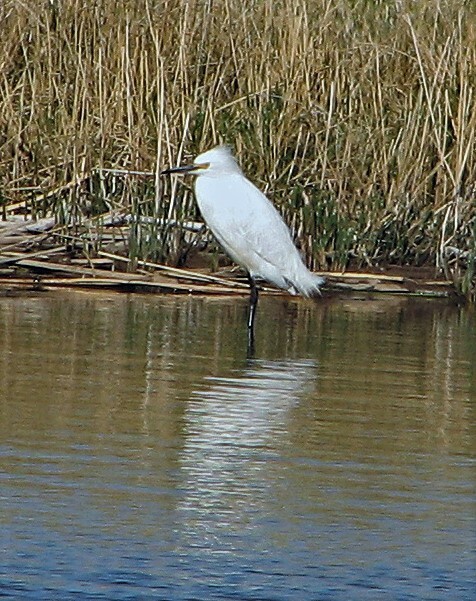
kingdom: Animalia
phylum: Chordata
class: Aves
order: Pelecaniformes
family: Ardeidae
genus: Egretta
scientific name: Egretta thula
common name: Snowy egret
